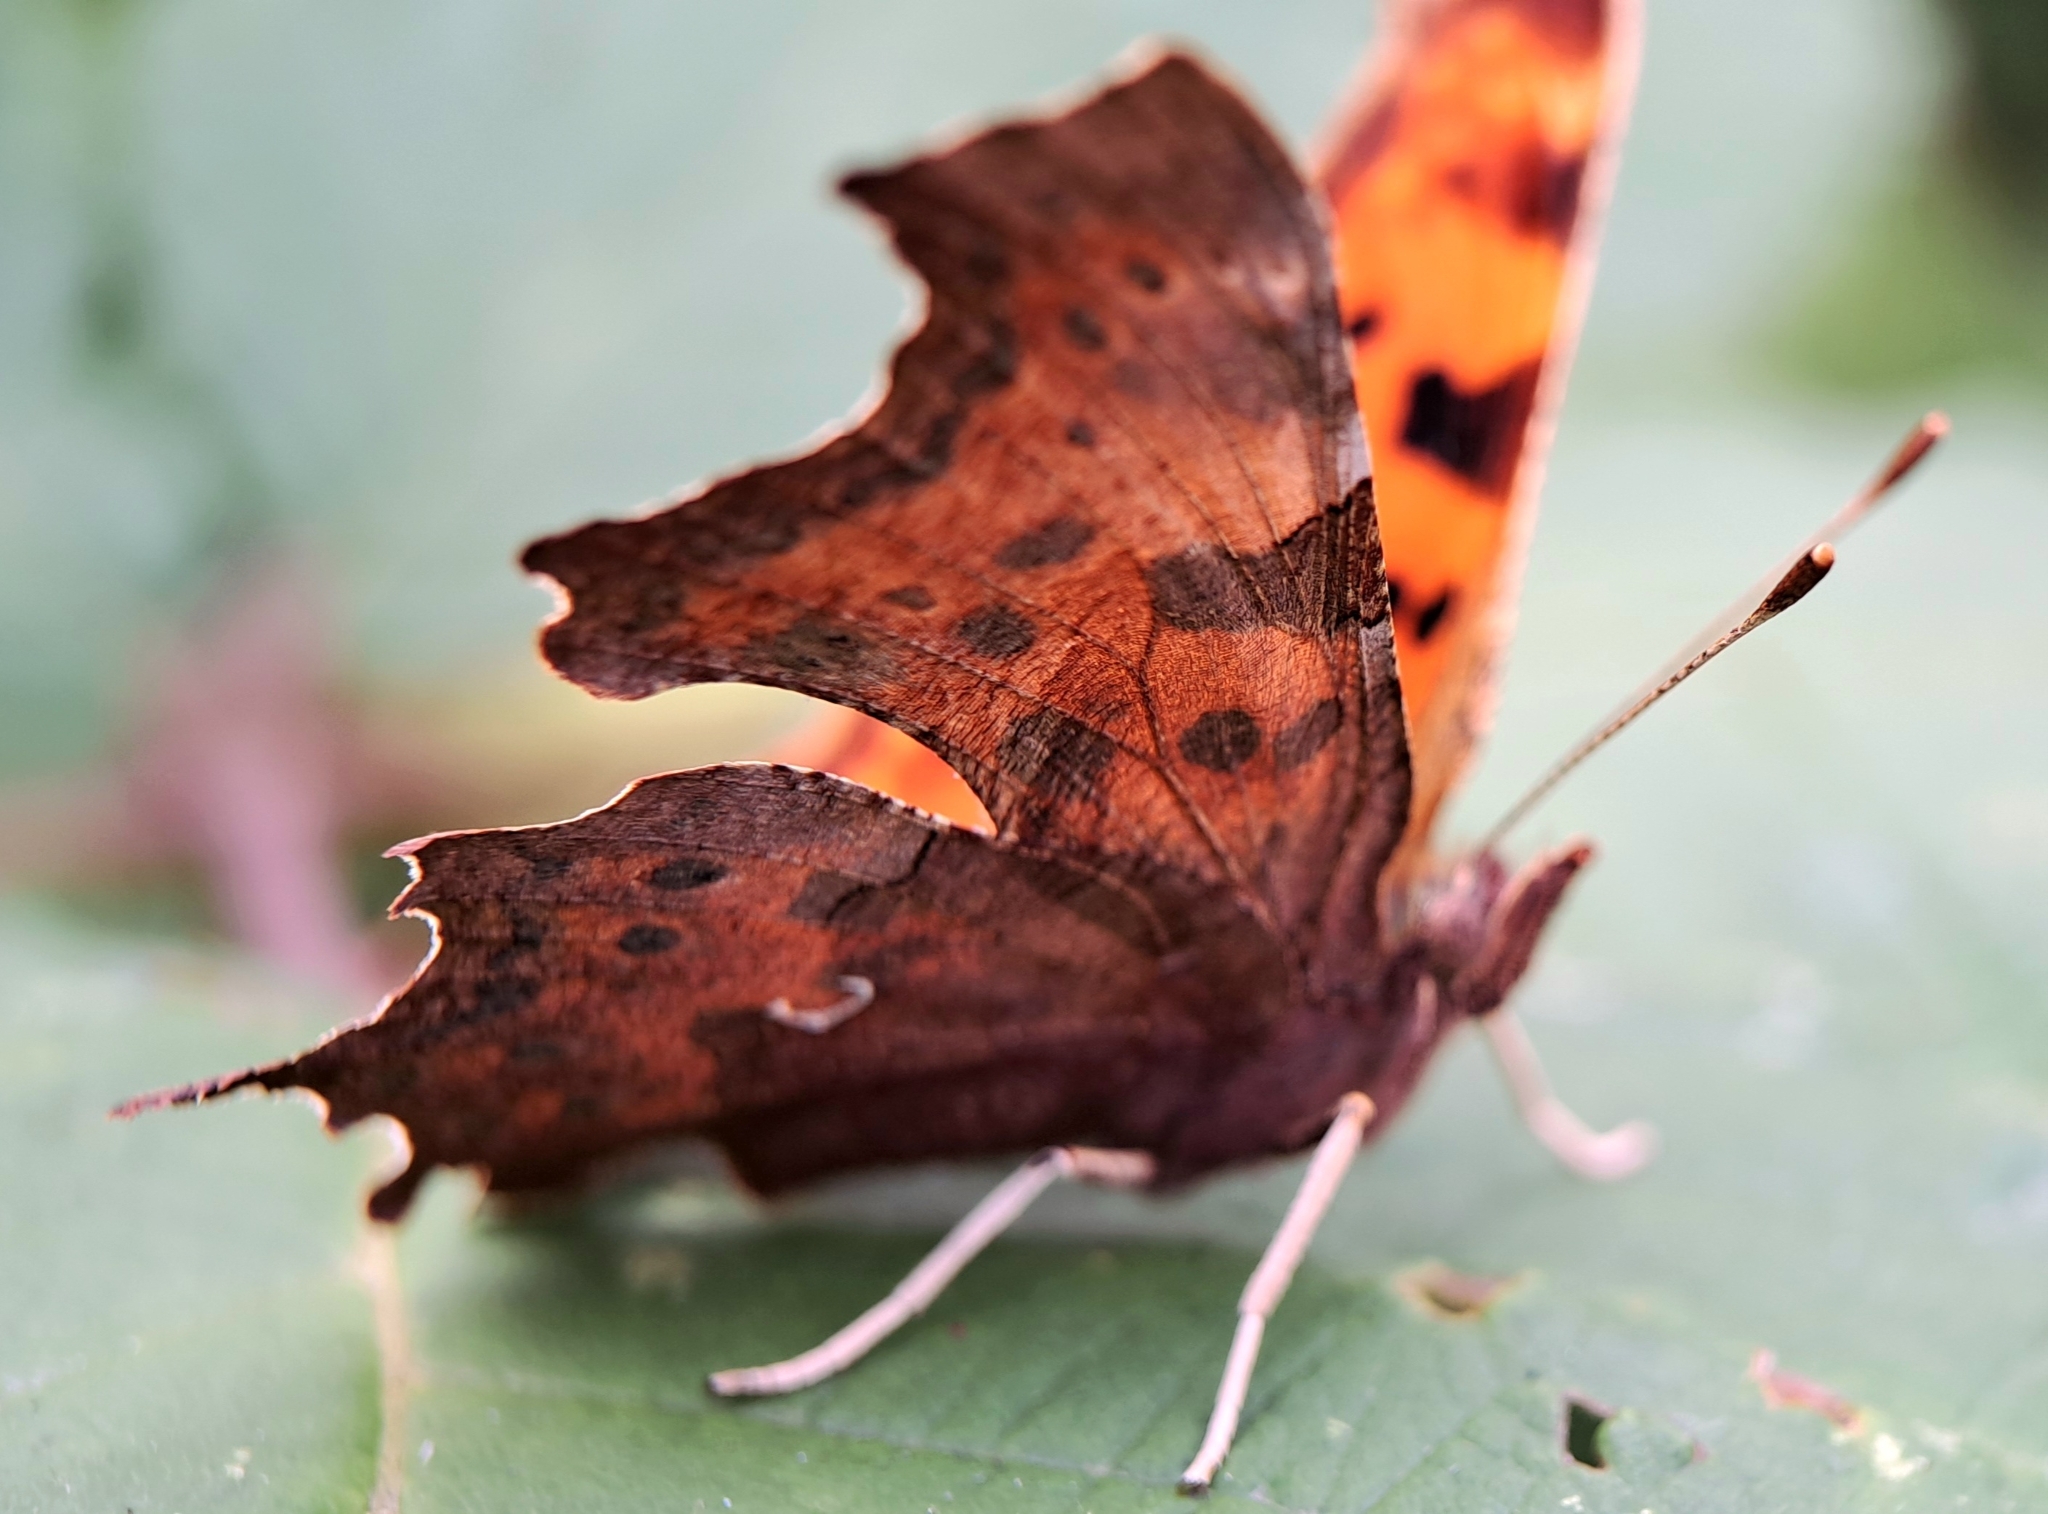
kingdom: Animalia
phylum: Arthropoda
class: Insecta
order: Lepidoptera
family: Nymphalidae
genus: Polygonia
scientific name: Polygonia c-album
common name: Comma
